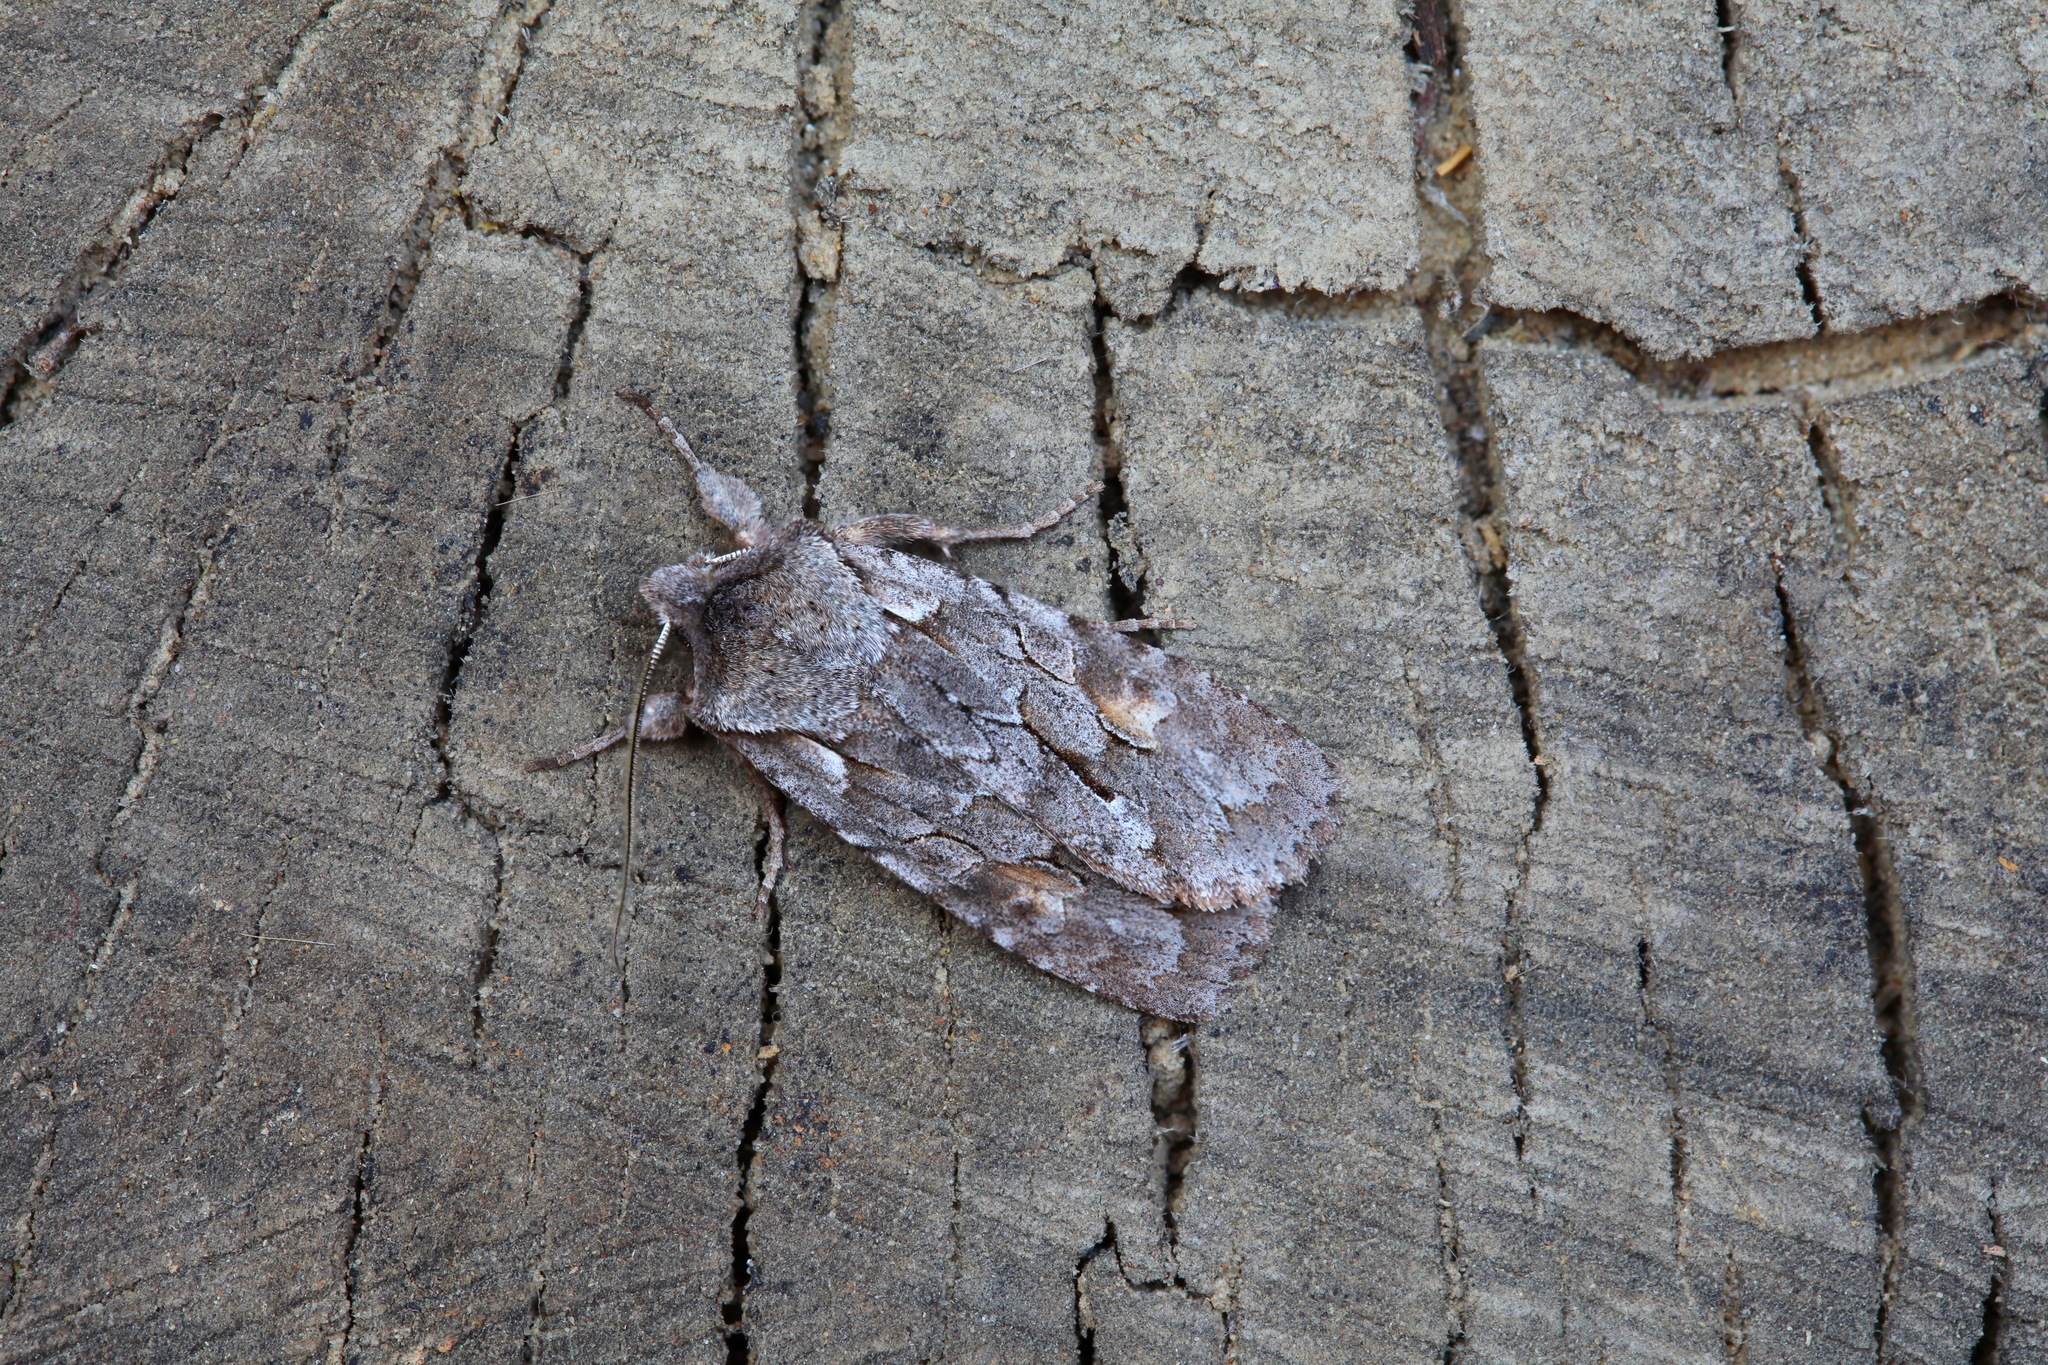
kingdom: Animalia
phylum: Arthropoda
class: Insecta
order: Lepidoptera
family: Noctuidae
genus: Lithophane
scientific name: Lithophane lamda
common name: Nonconformist
